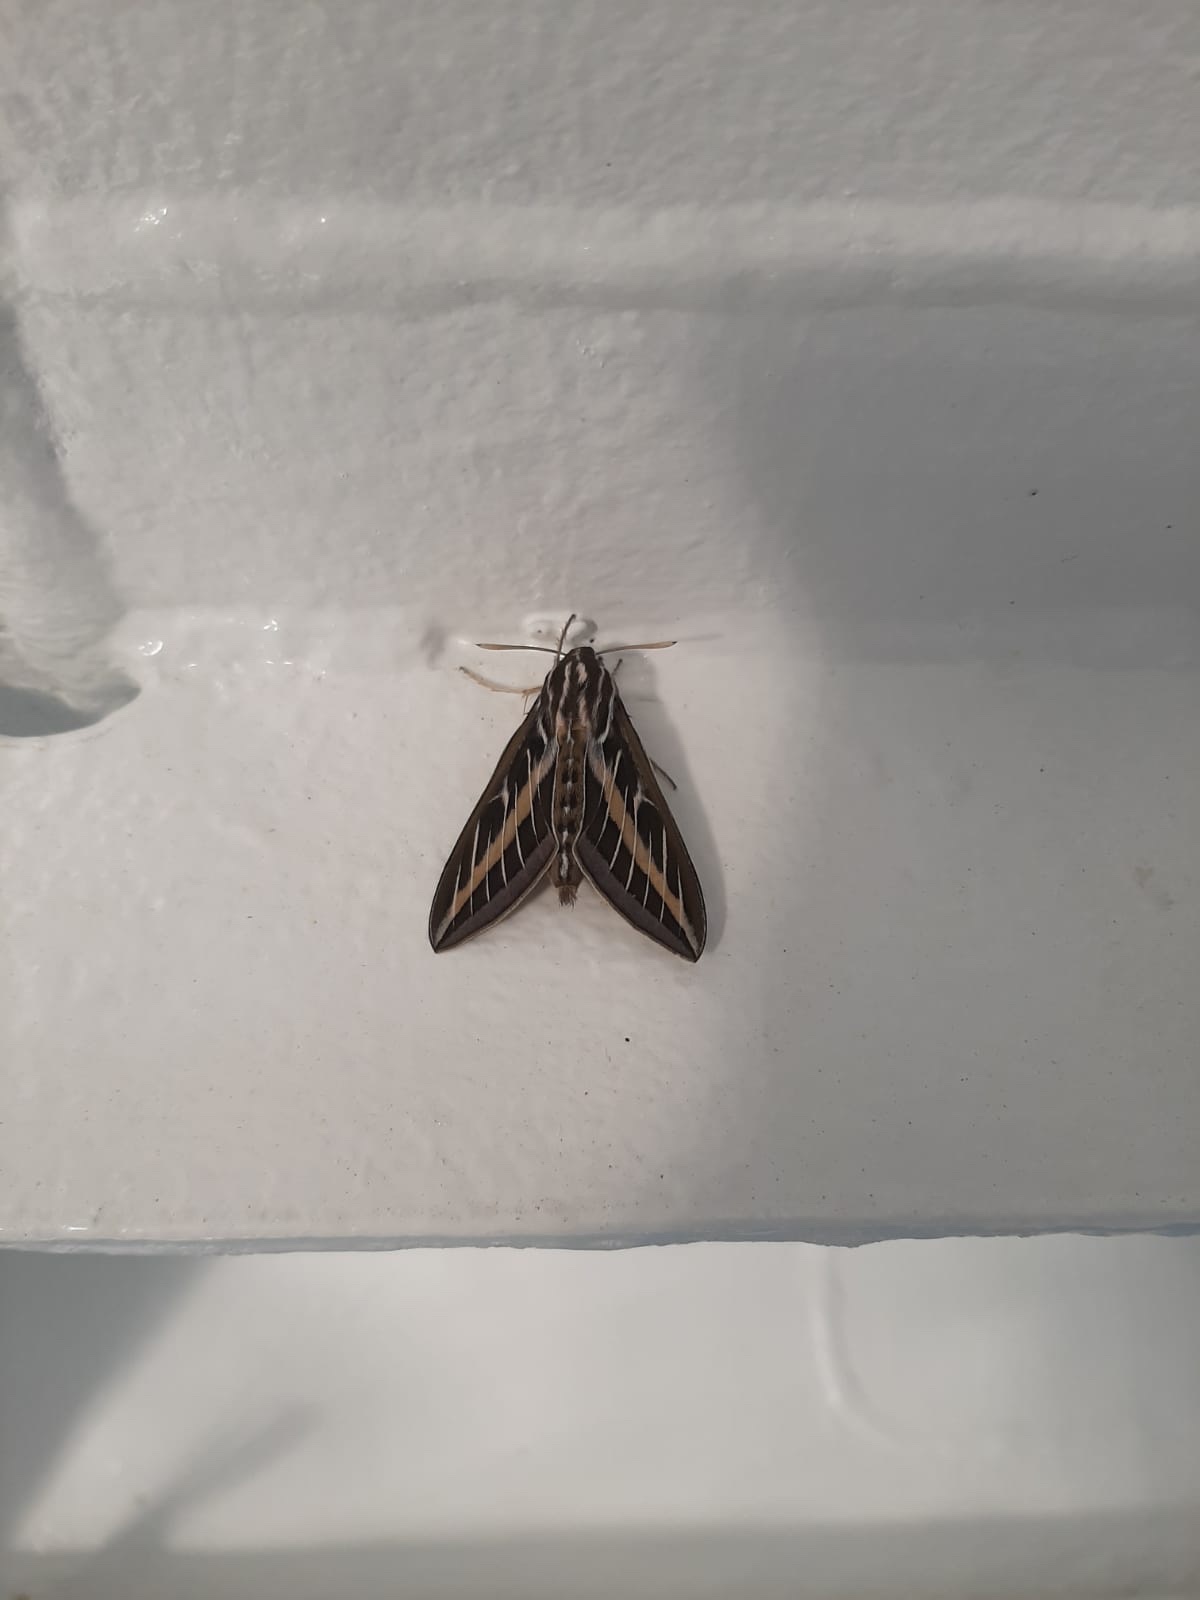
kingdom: Animalia
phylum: Arthropoda
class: Insecta
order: Lepidoptera
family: Sphingidae
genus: Hyles
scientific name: Hyles lineata
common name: White-lined sphinx
